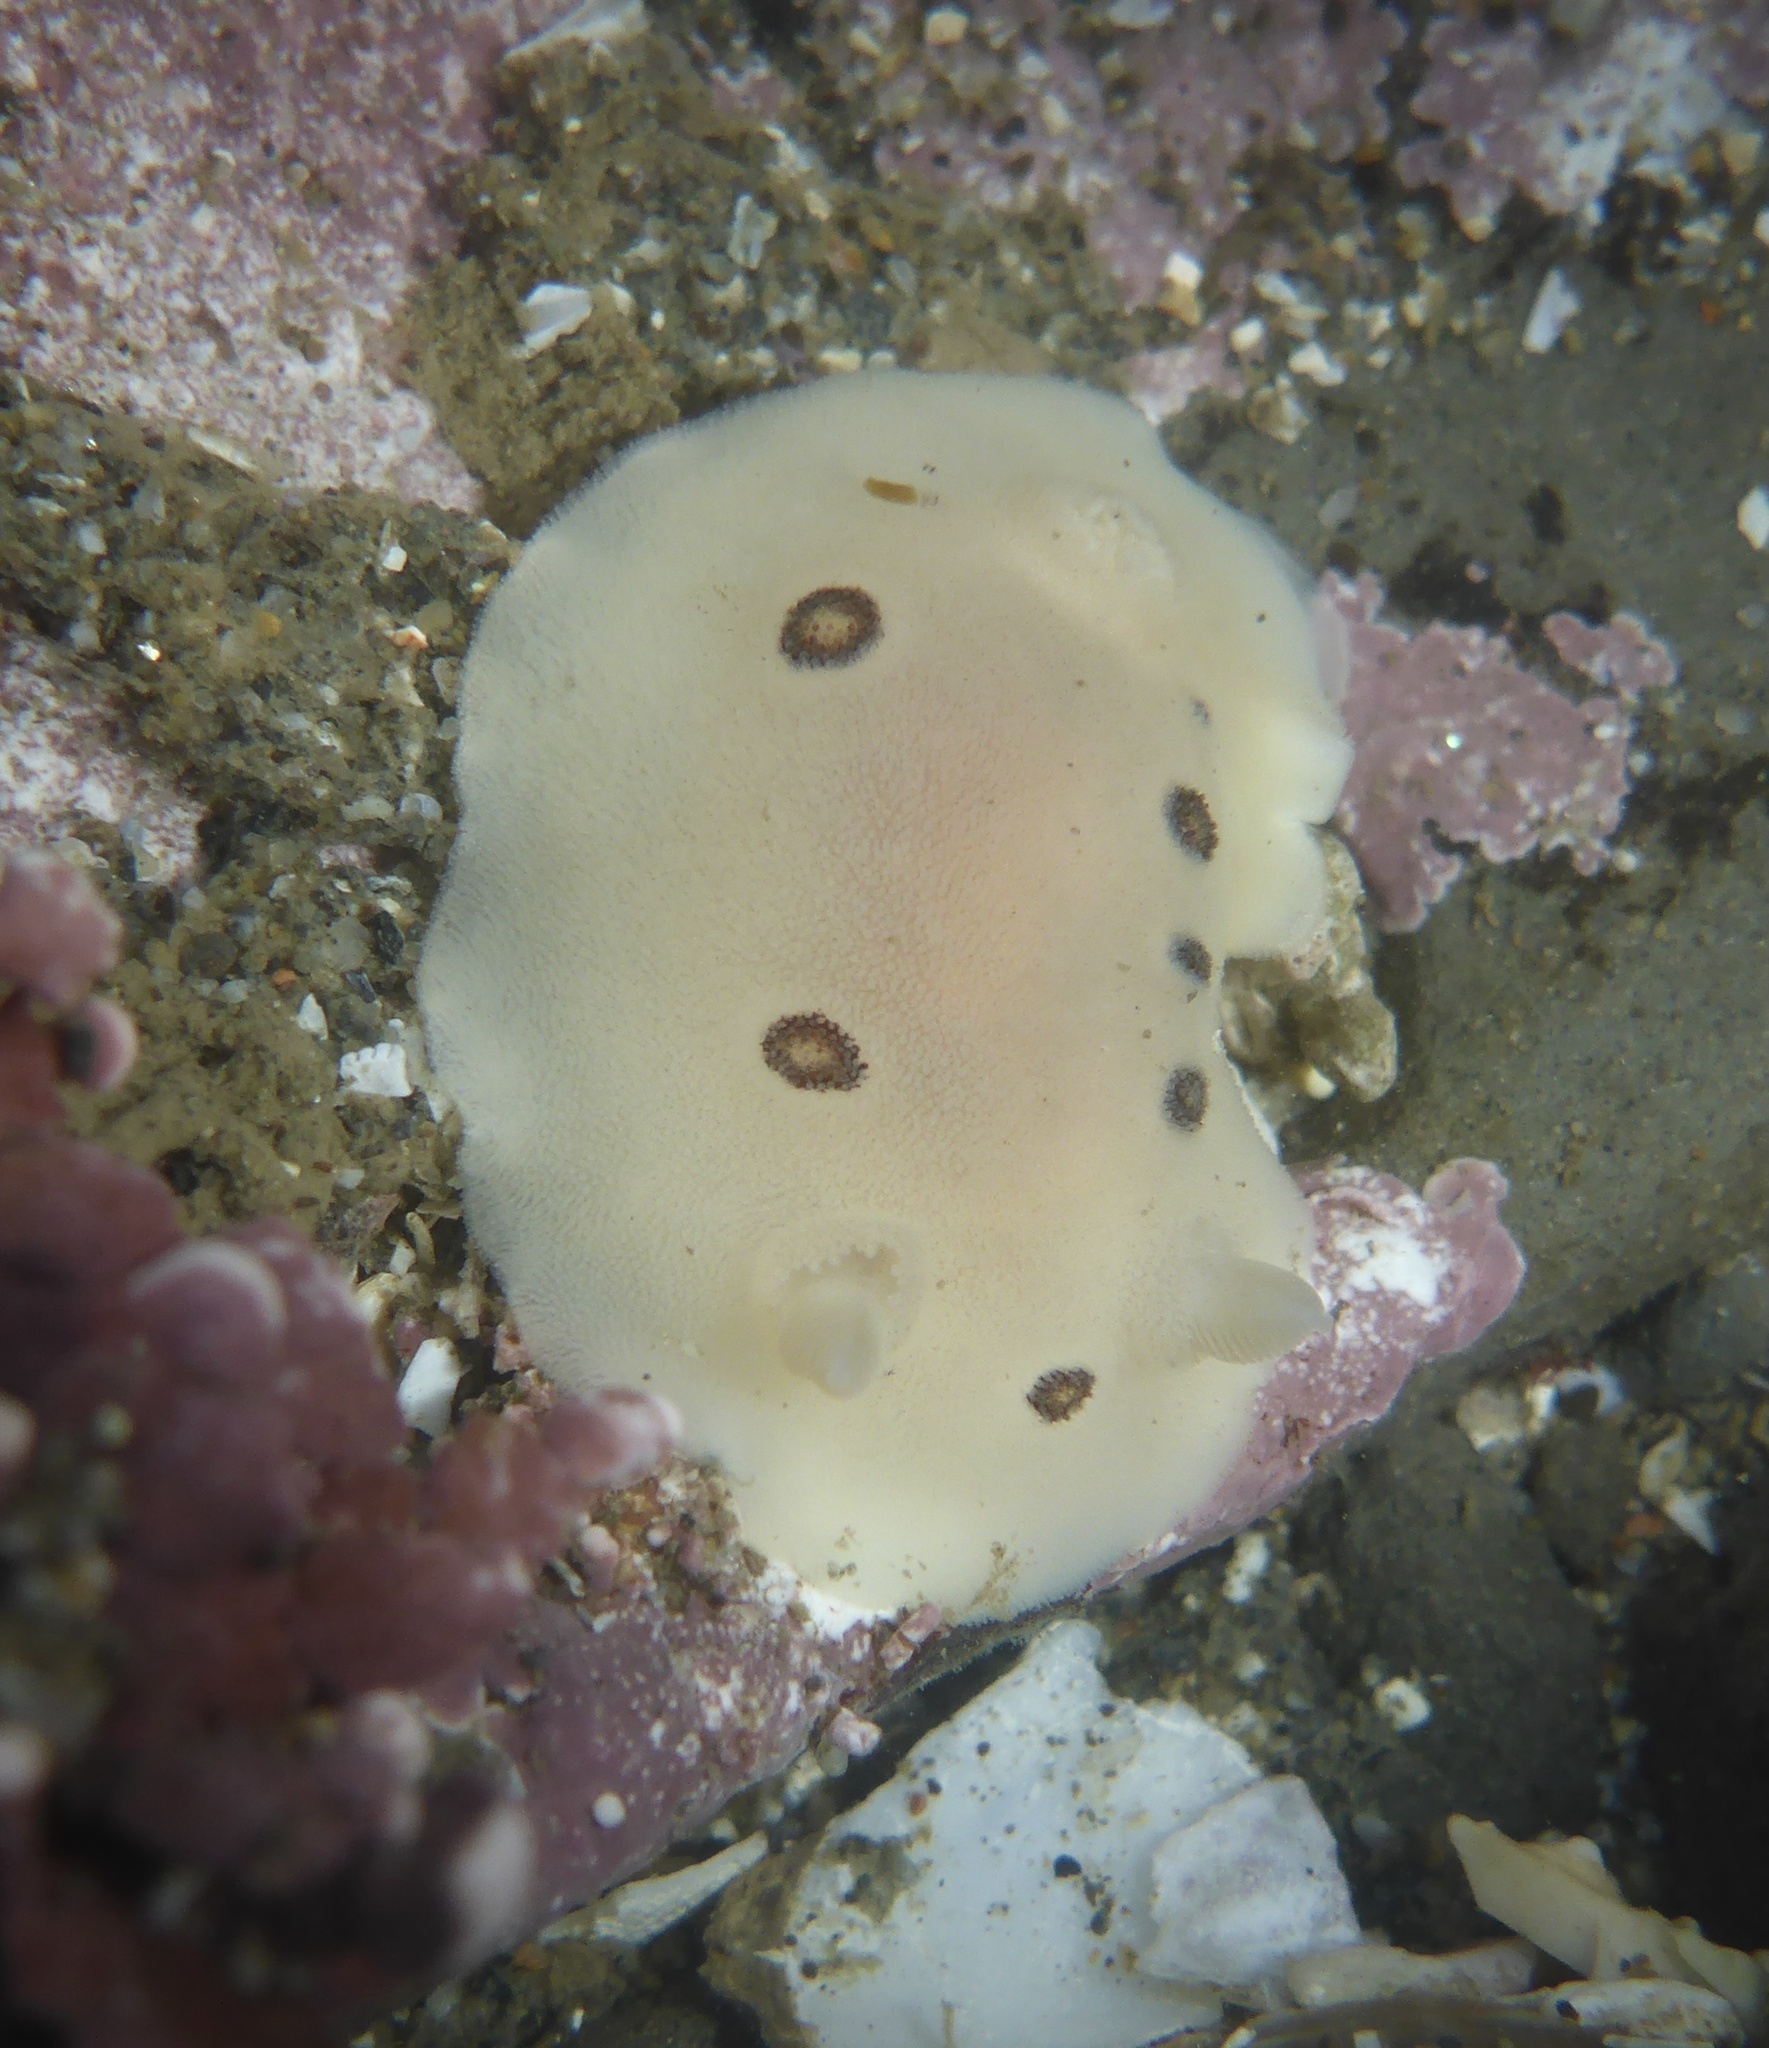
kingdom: Animalia
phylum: Mollusca
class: Gastropoda
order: Nudibranchia
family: Discodorididae
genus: Diaulula
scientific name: Diaulula sandiegensis
